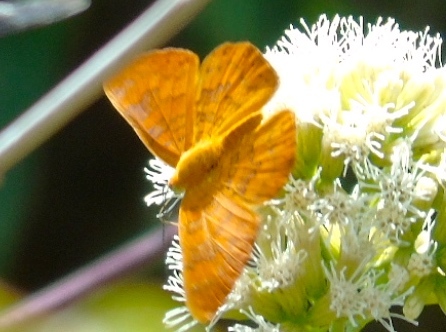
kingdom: Animalia
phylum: Arthropoda
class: Insecta
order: Lepidoptera
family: Lycaenidae
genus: Emesis
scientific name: Emesis
